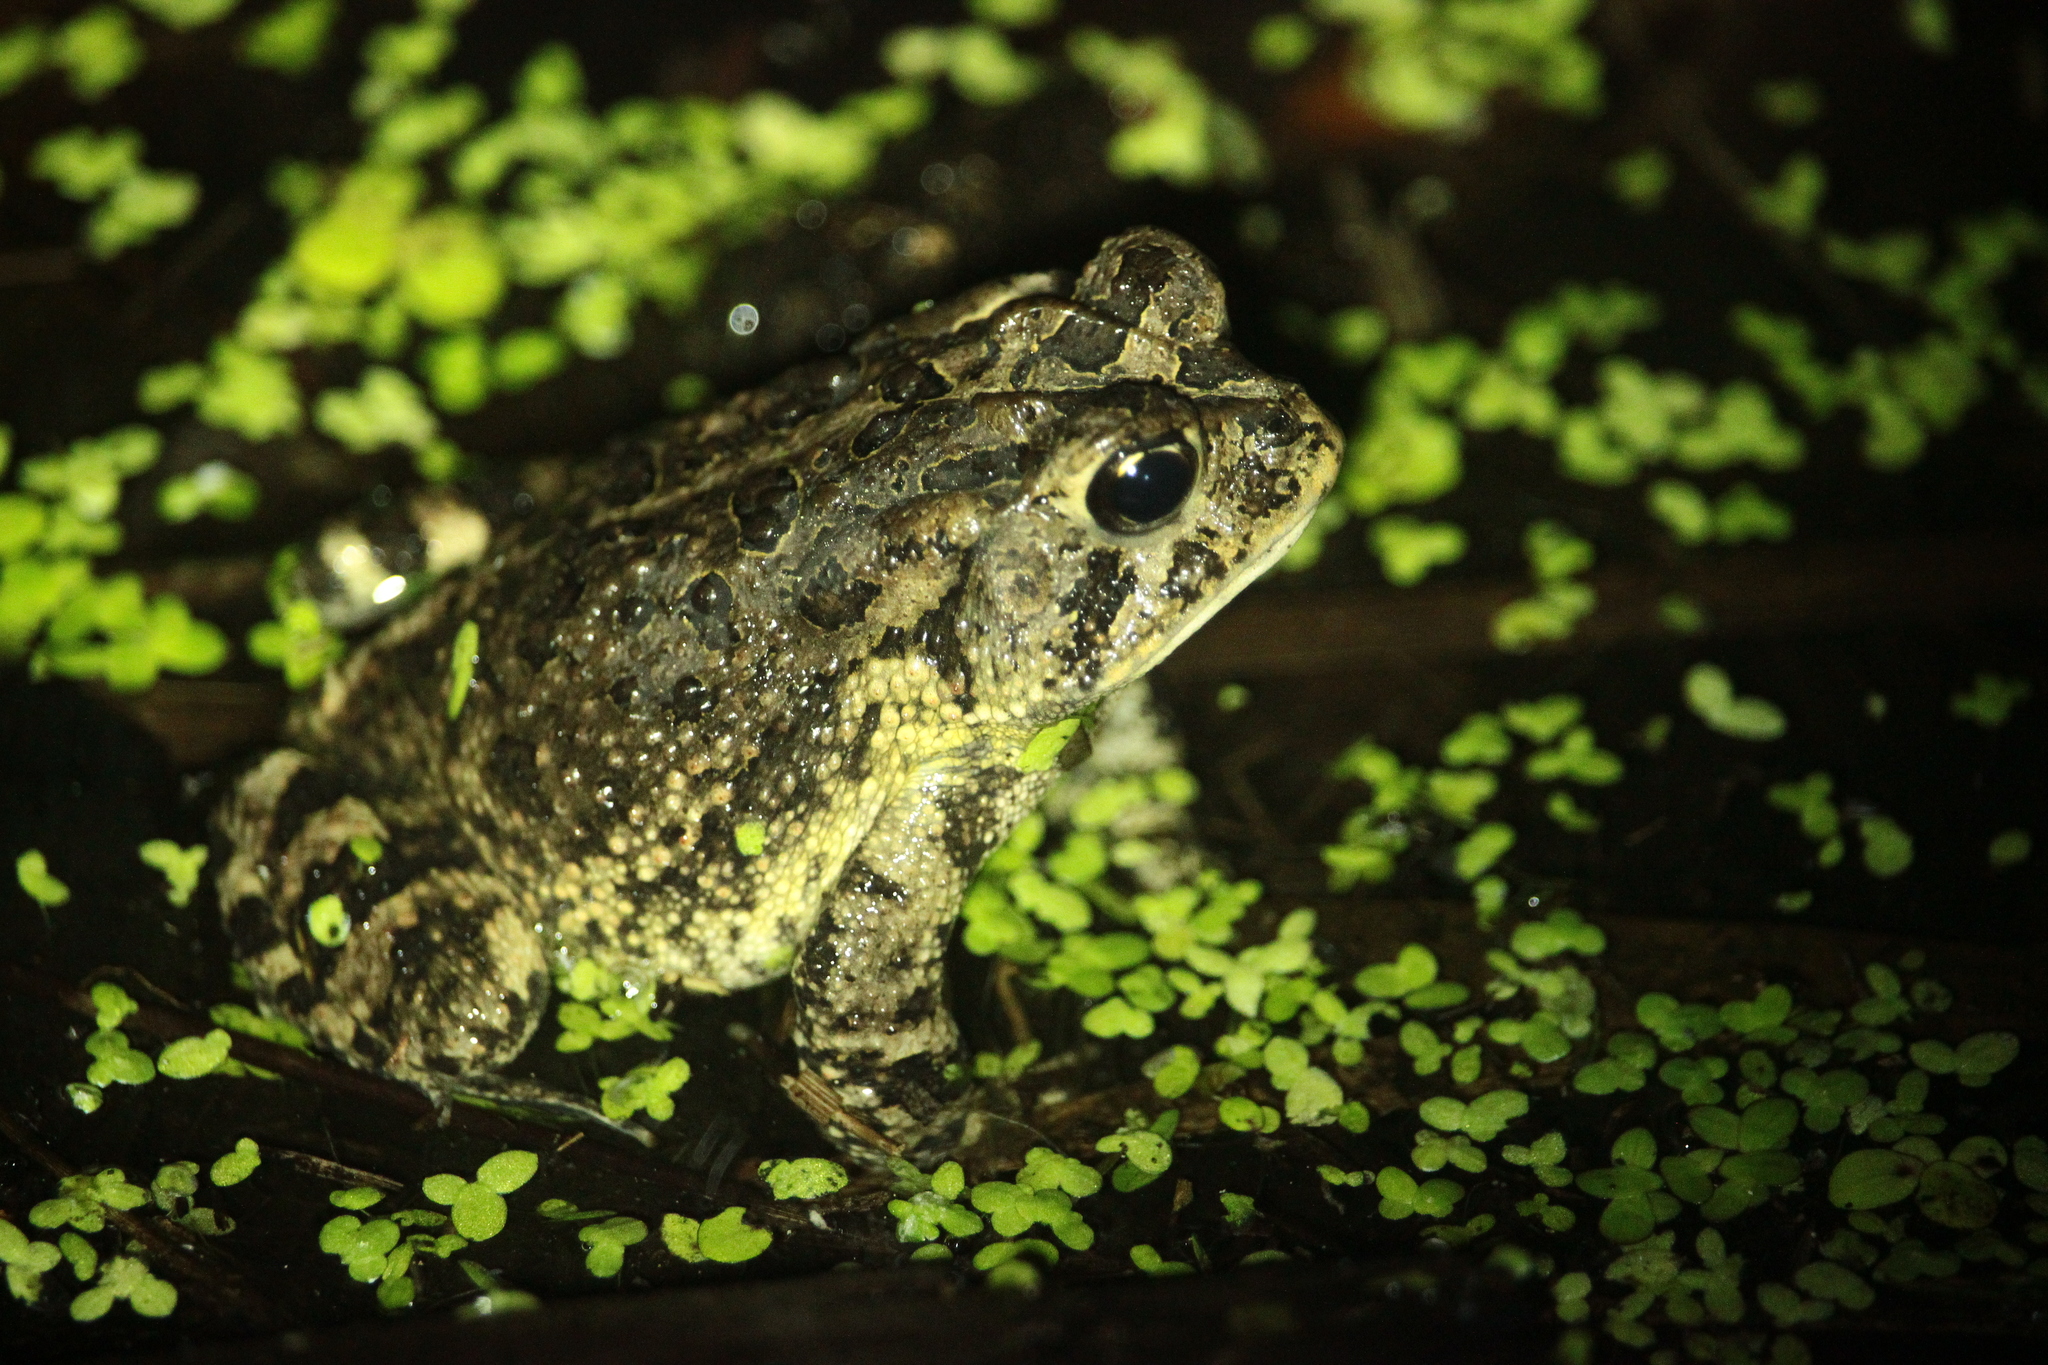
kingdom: Animalia
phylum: Chordata
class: Amphibia
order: Anura
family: Bufonidae
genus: Anaxyrus
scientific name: Anaxyrus terrestris
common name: Southern toad
